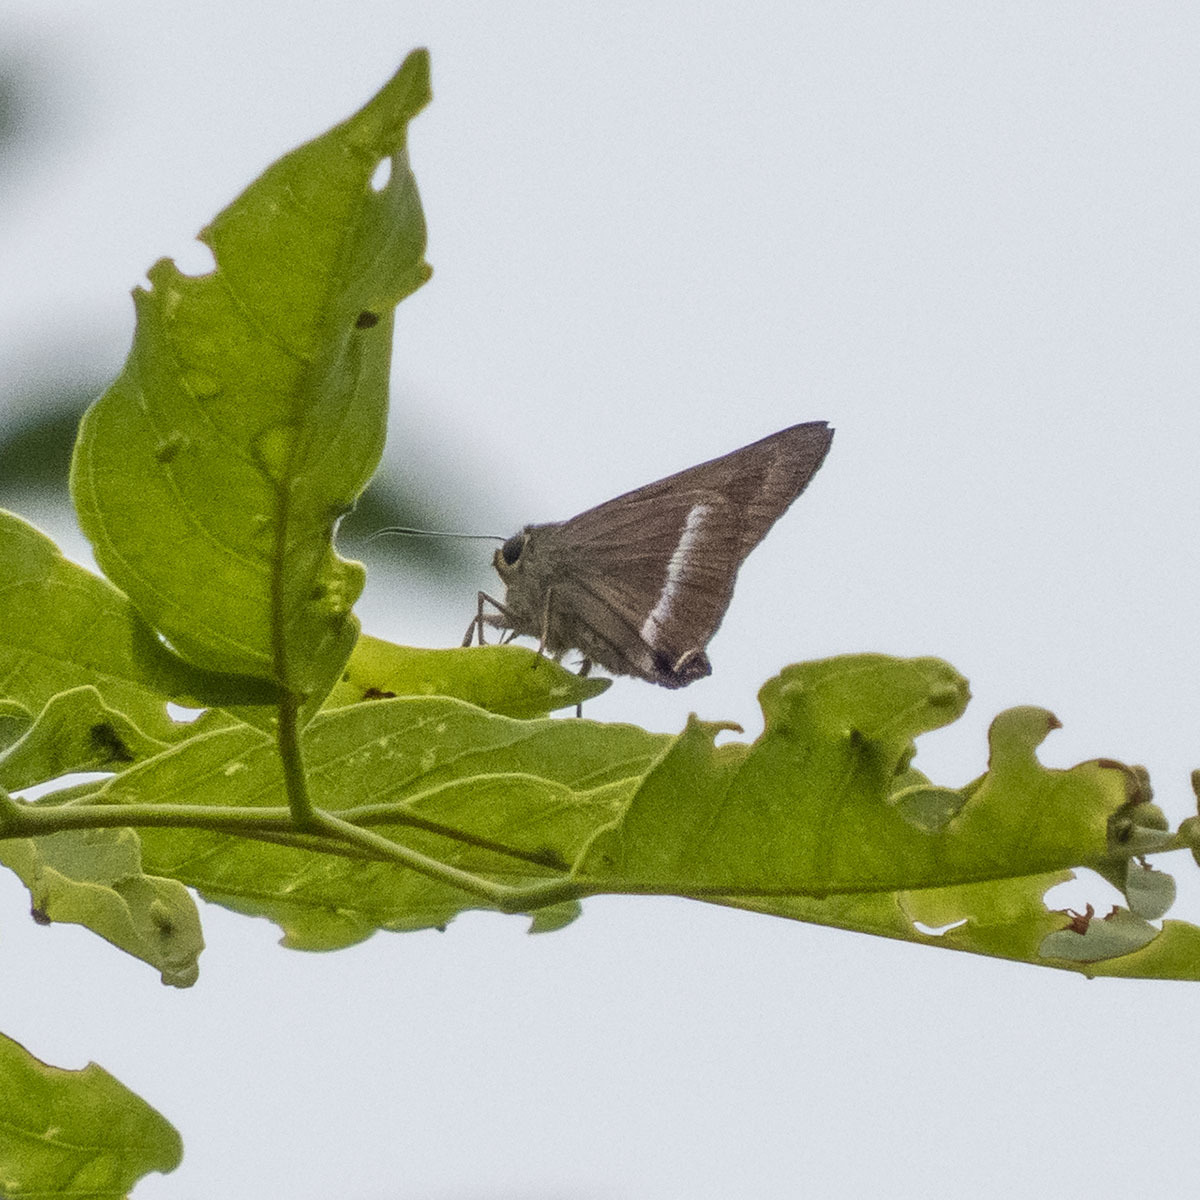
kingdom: Animalia
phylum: Arthropoda
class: Insecta
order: Lepidoptera
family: Hesperiidae
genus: Hasora
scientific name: Hasora chromus
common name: Common banded awl
